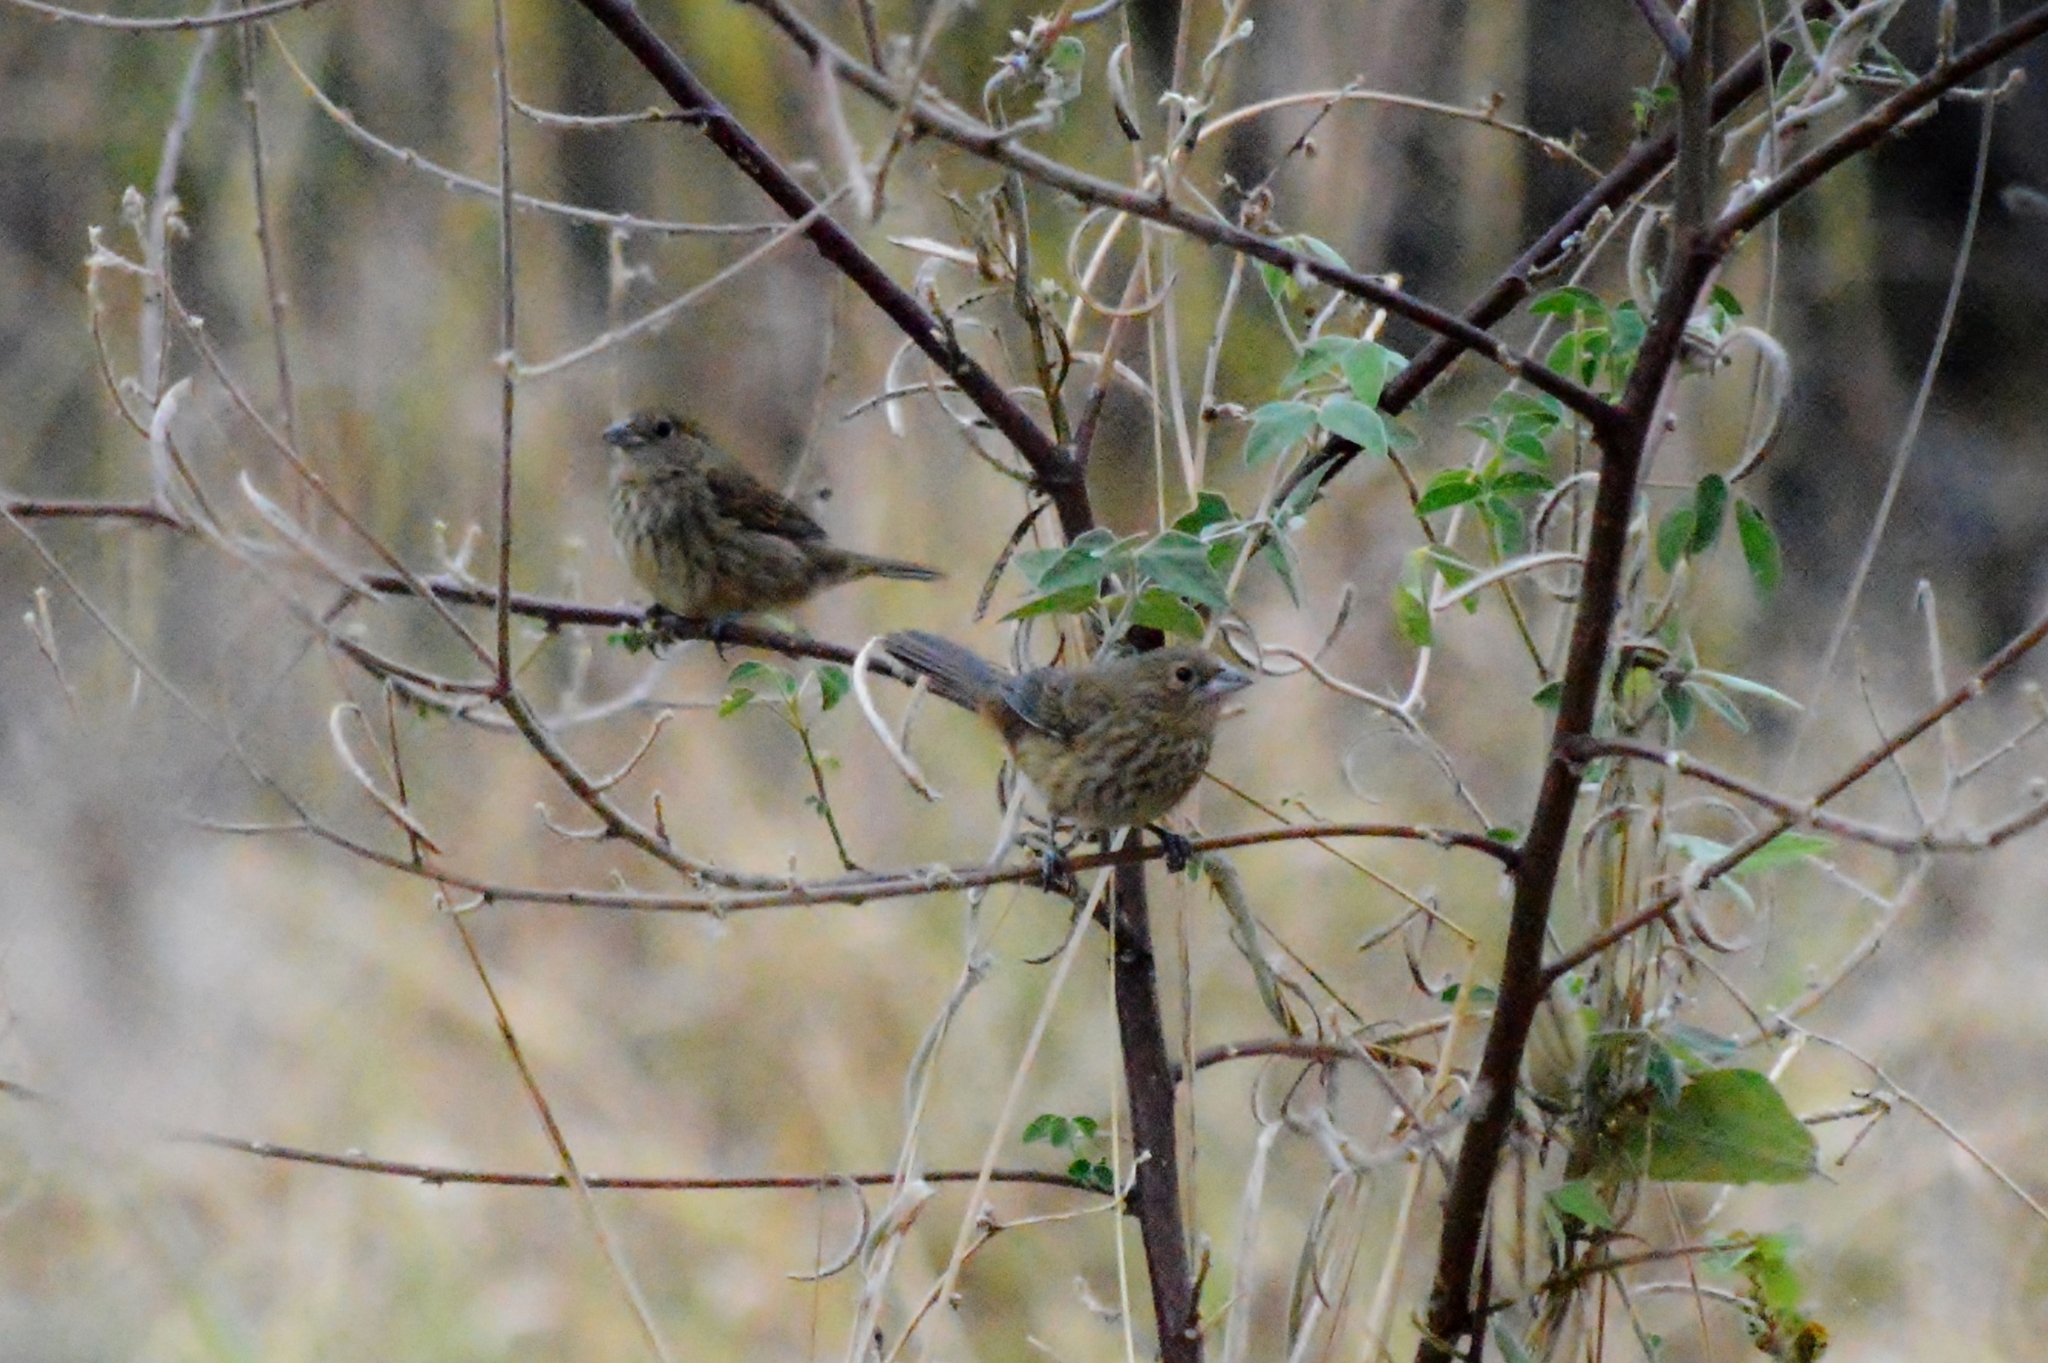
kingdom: Animalia
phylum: Chordata
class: Aves
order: Passeriformes
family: Thraupidae
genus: Volatinia
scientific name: Volatinia jacarina
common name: Blue-black grassquit
